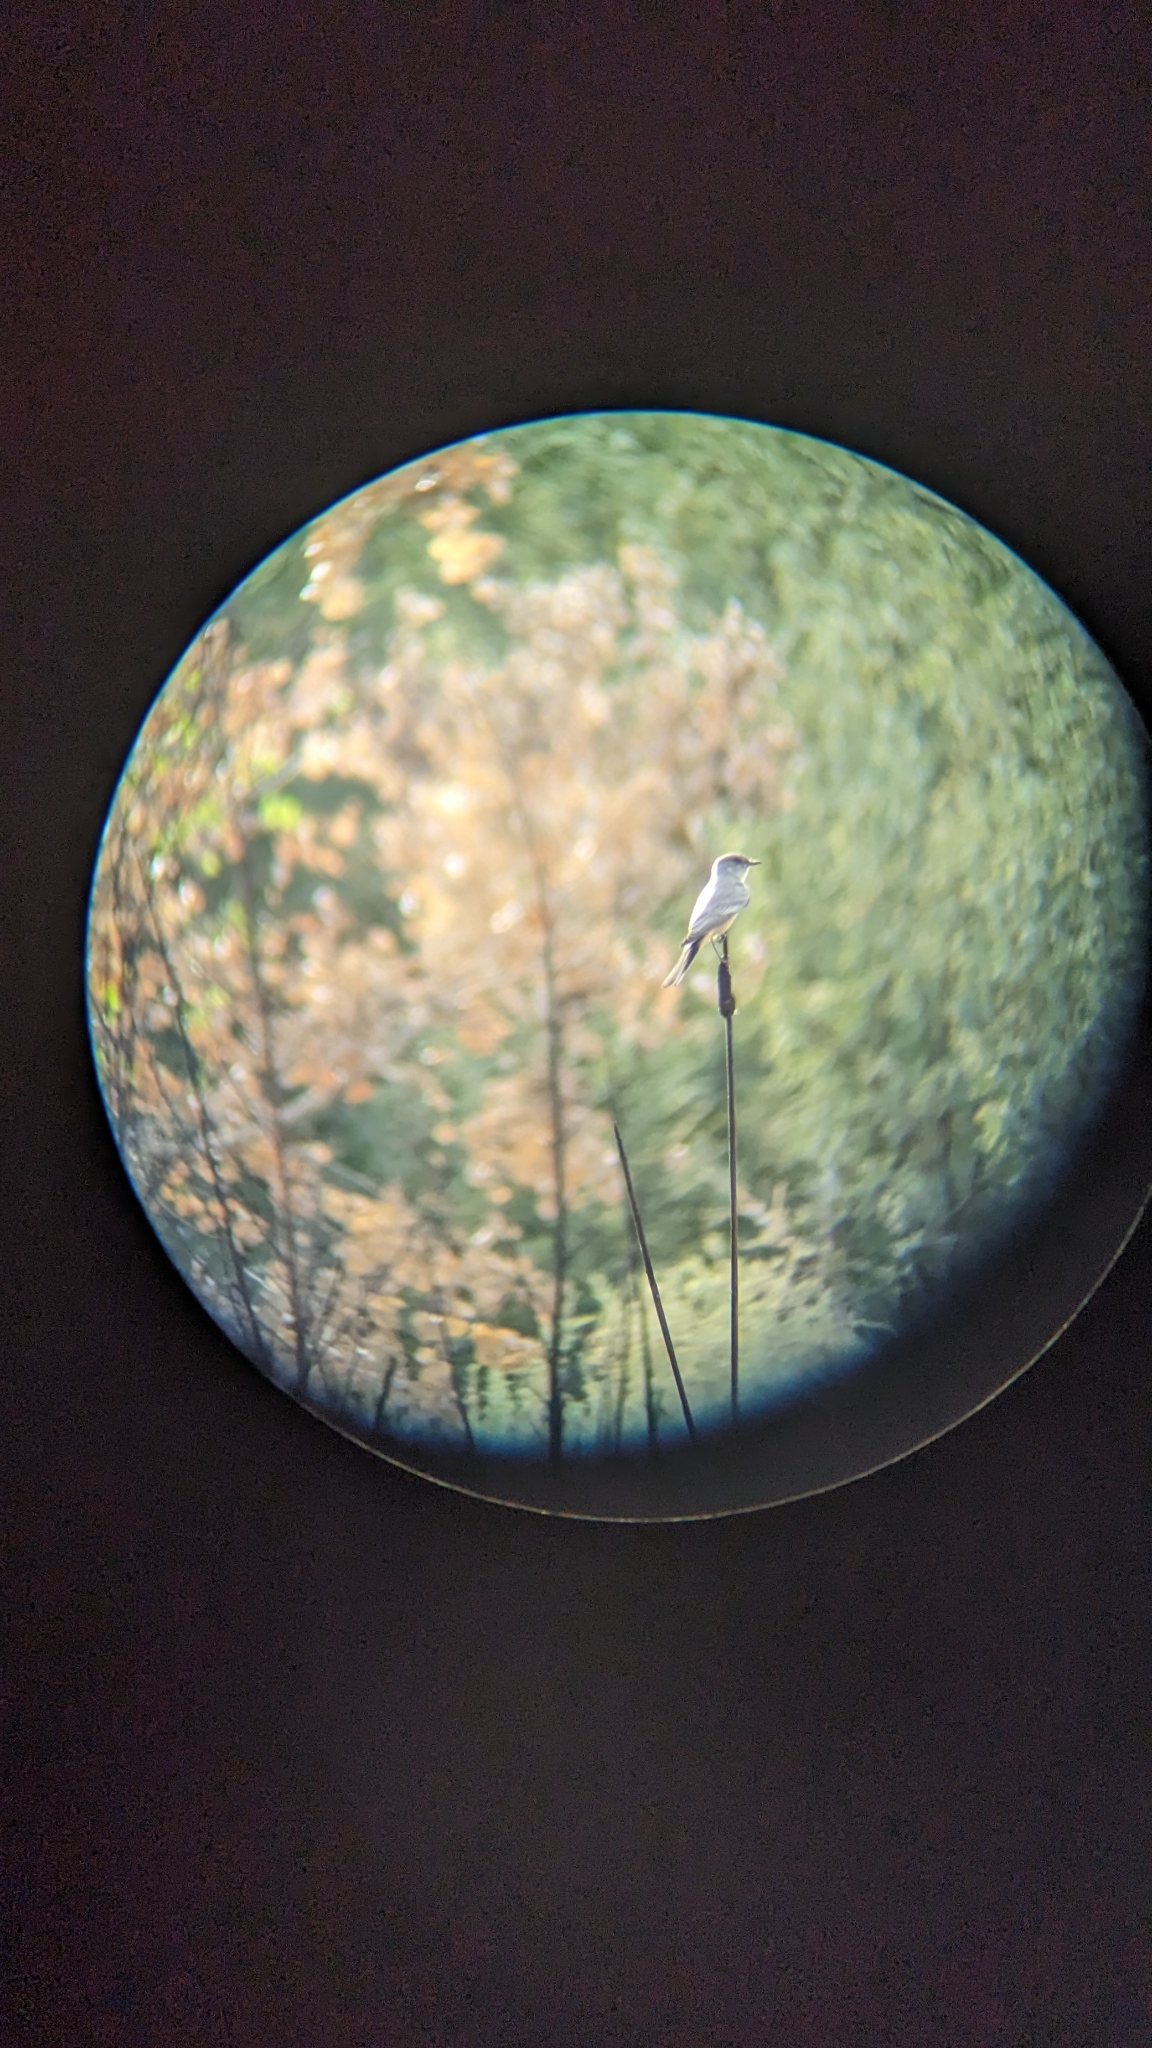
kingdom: Animalia
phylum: Chordata
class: Aves
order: Passeriformes
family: Tyrannidae
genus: Sayornis
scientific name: Sayornis saya
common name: Say's phoebe
